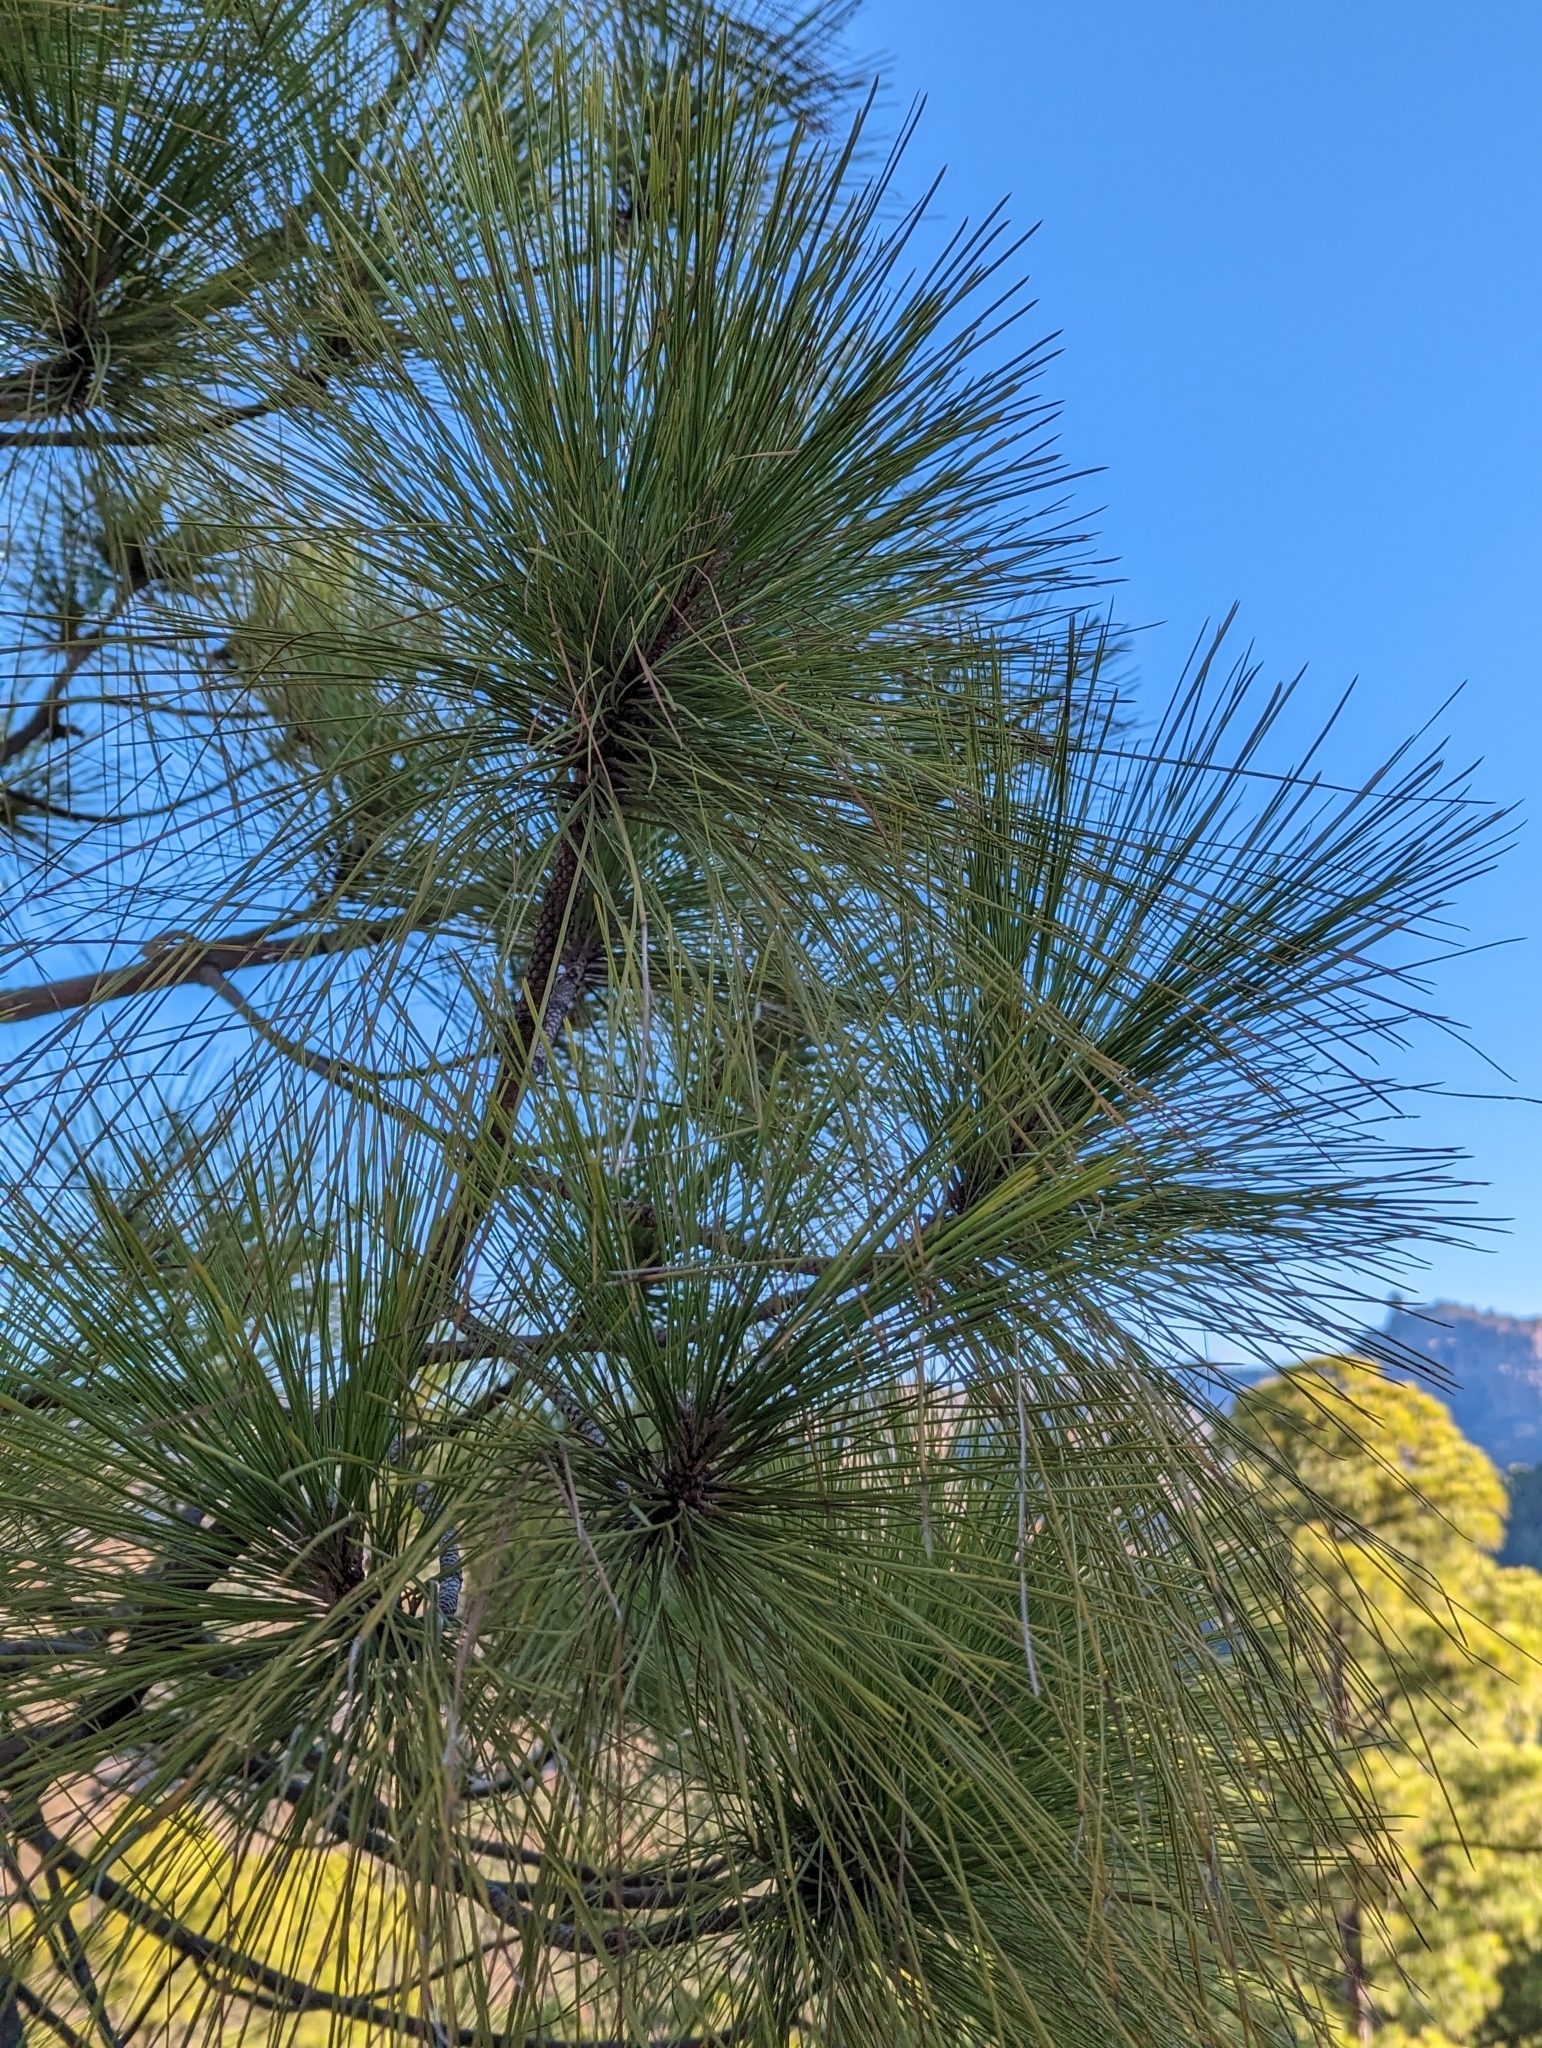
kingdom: Plantae
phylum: Tracheophyta
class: Pinopsida
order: Pinales
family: Pinaceae
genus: Pinus
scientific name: Pinus canariensis
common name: Canary islands pine
